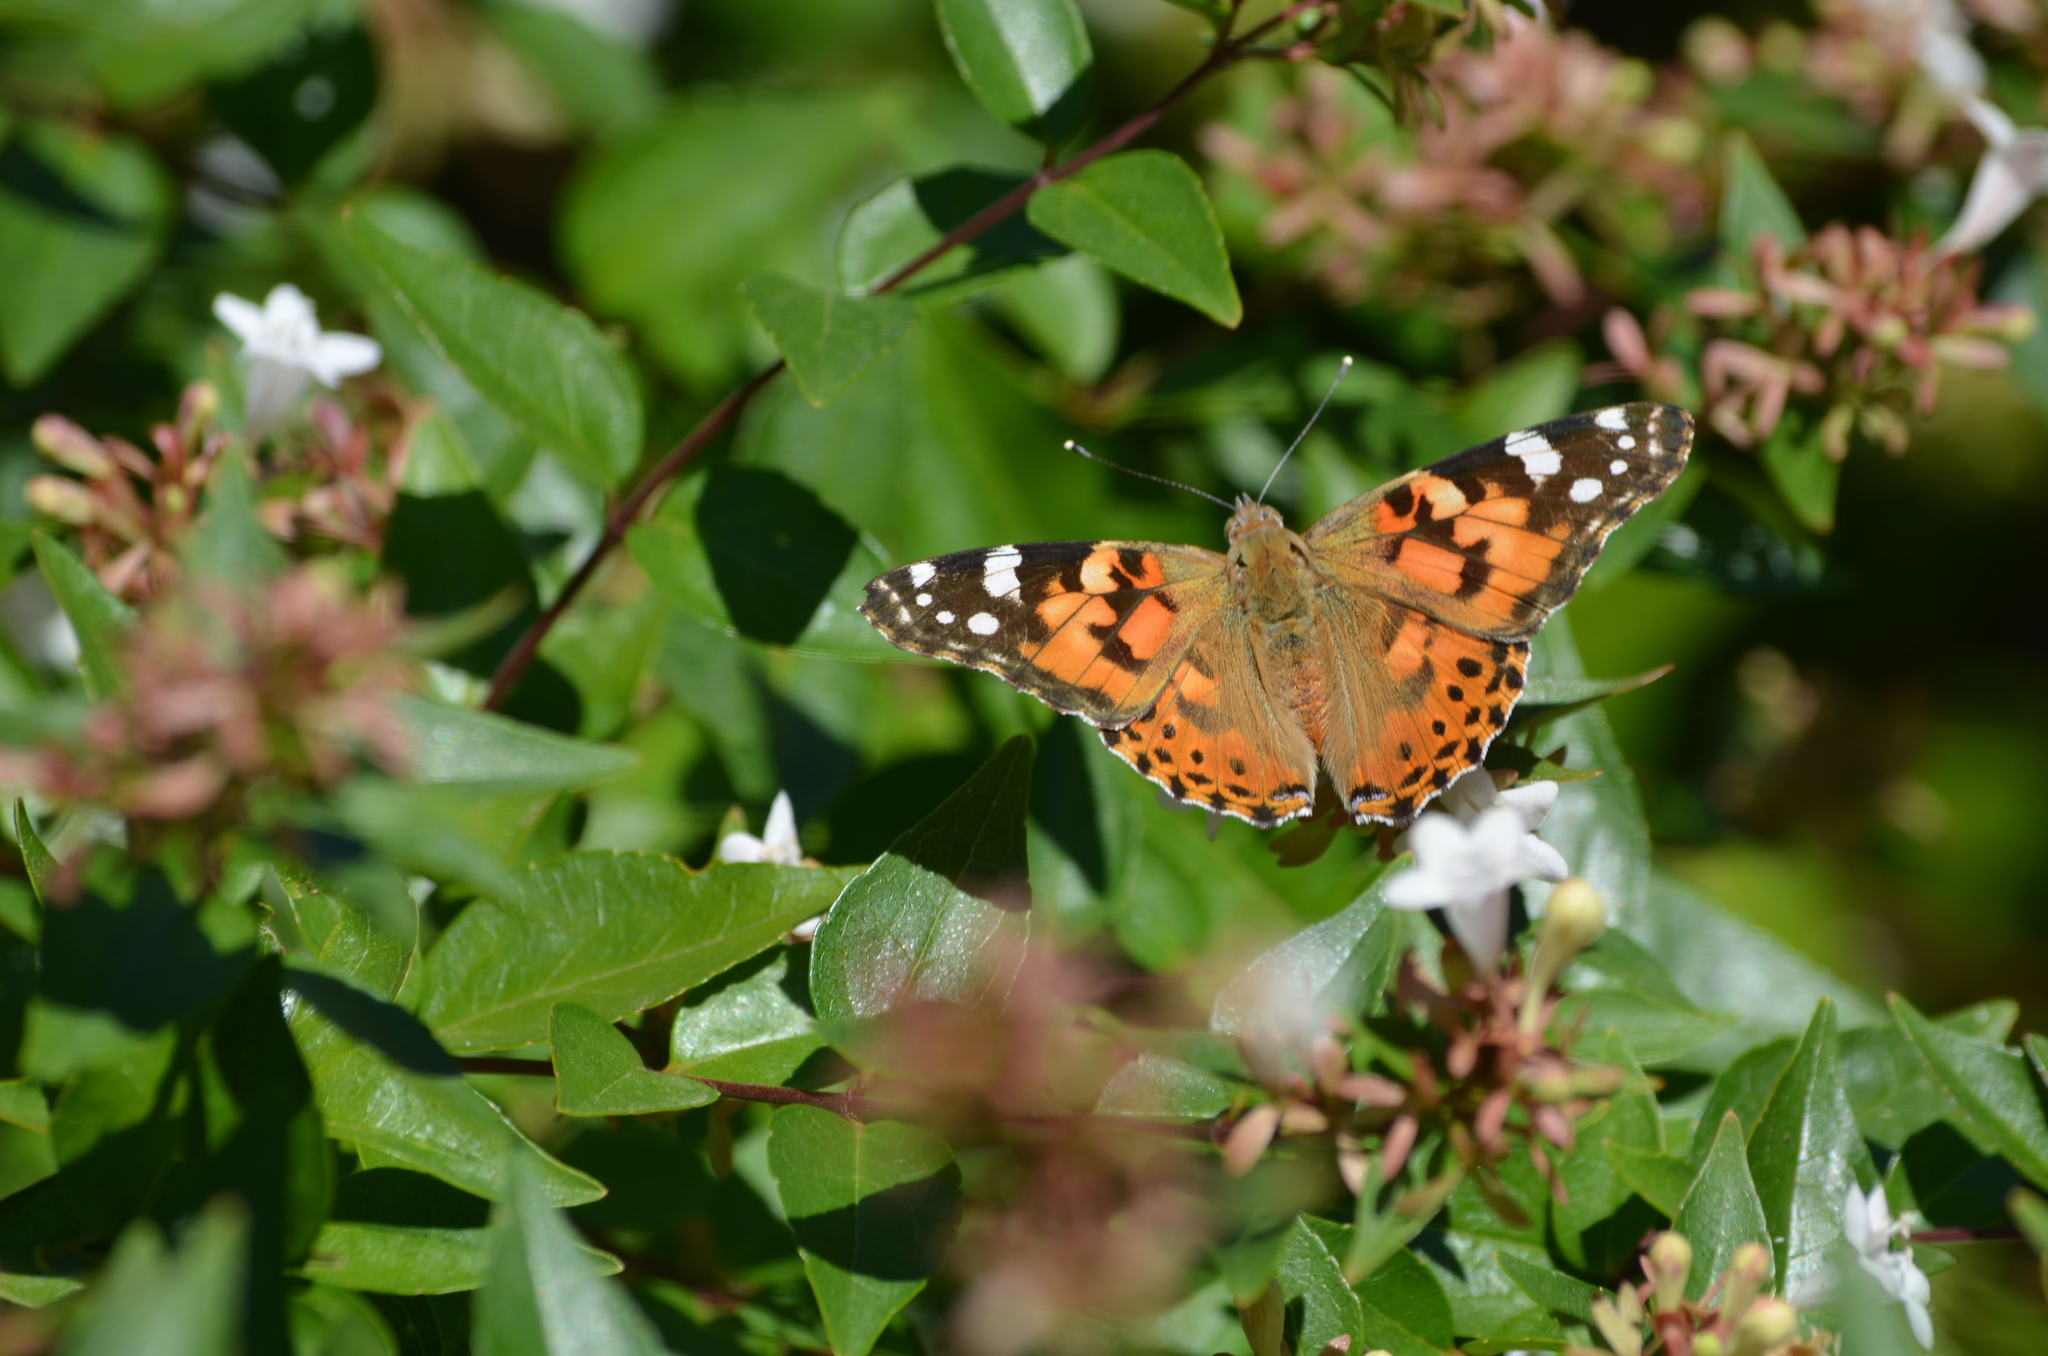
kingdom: Animalia
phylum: Arthropoda
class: Insecta
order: Lepidoptera
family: Nymphalidae
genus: Vanessa
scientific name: Vanessa cardui
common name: Painted lady
